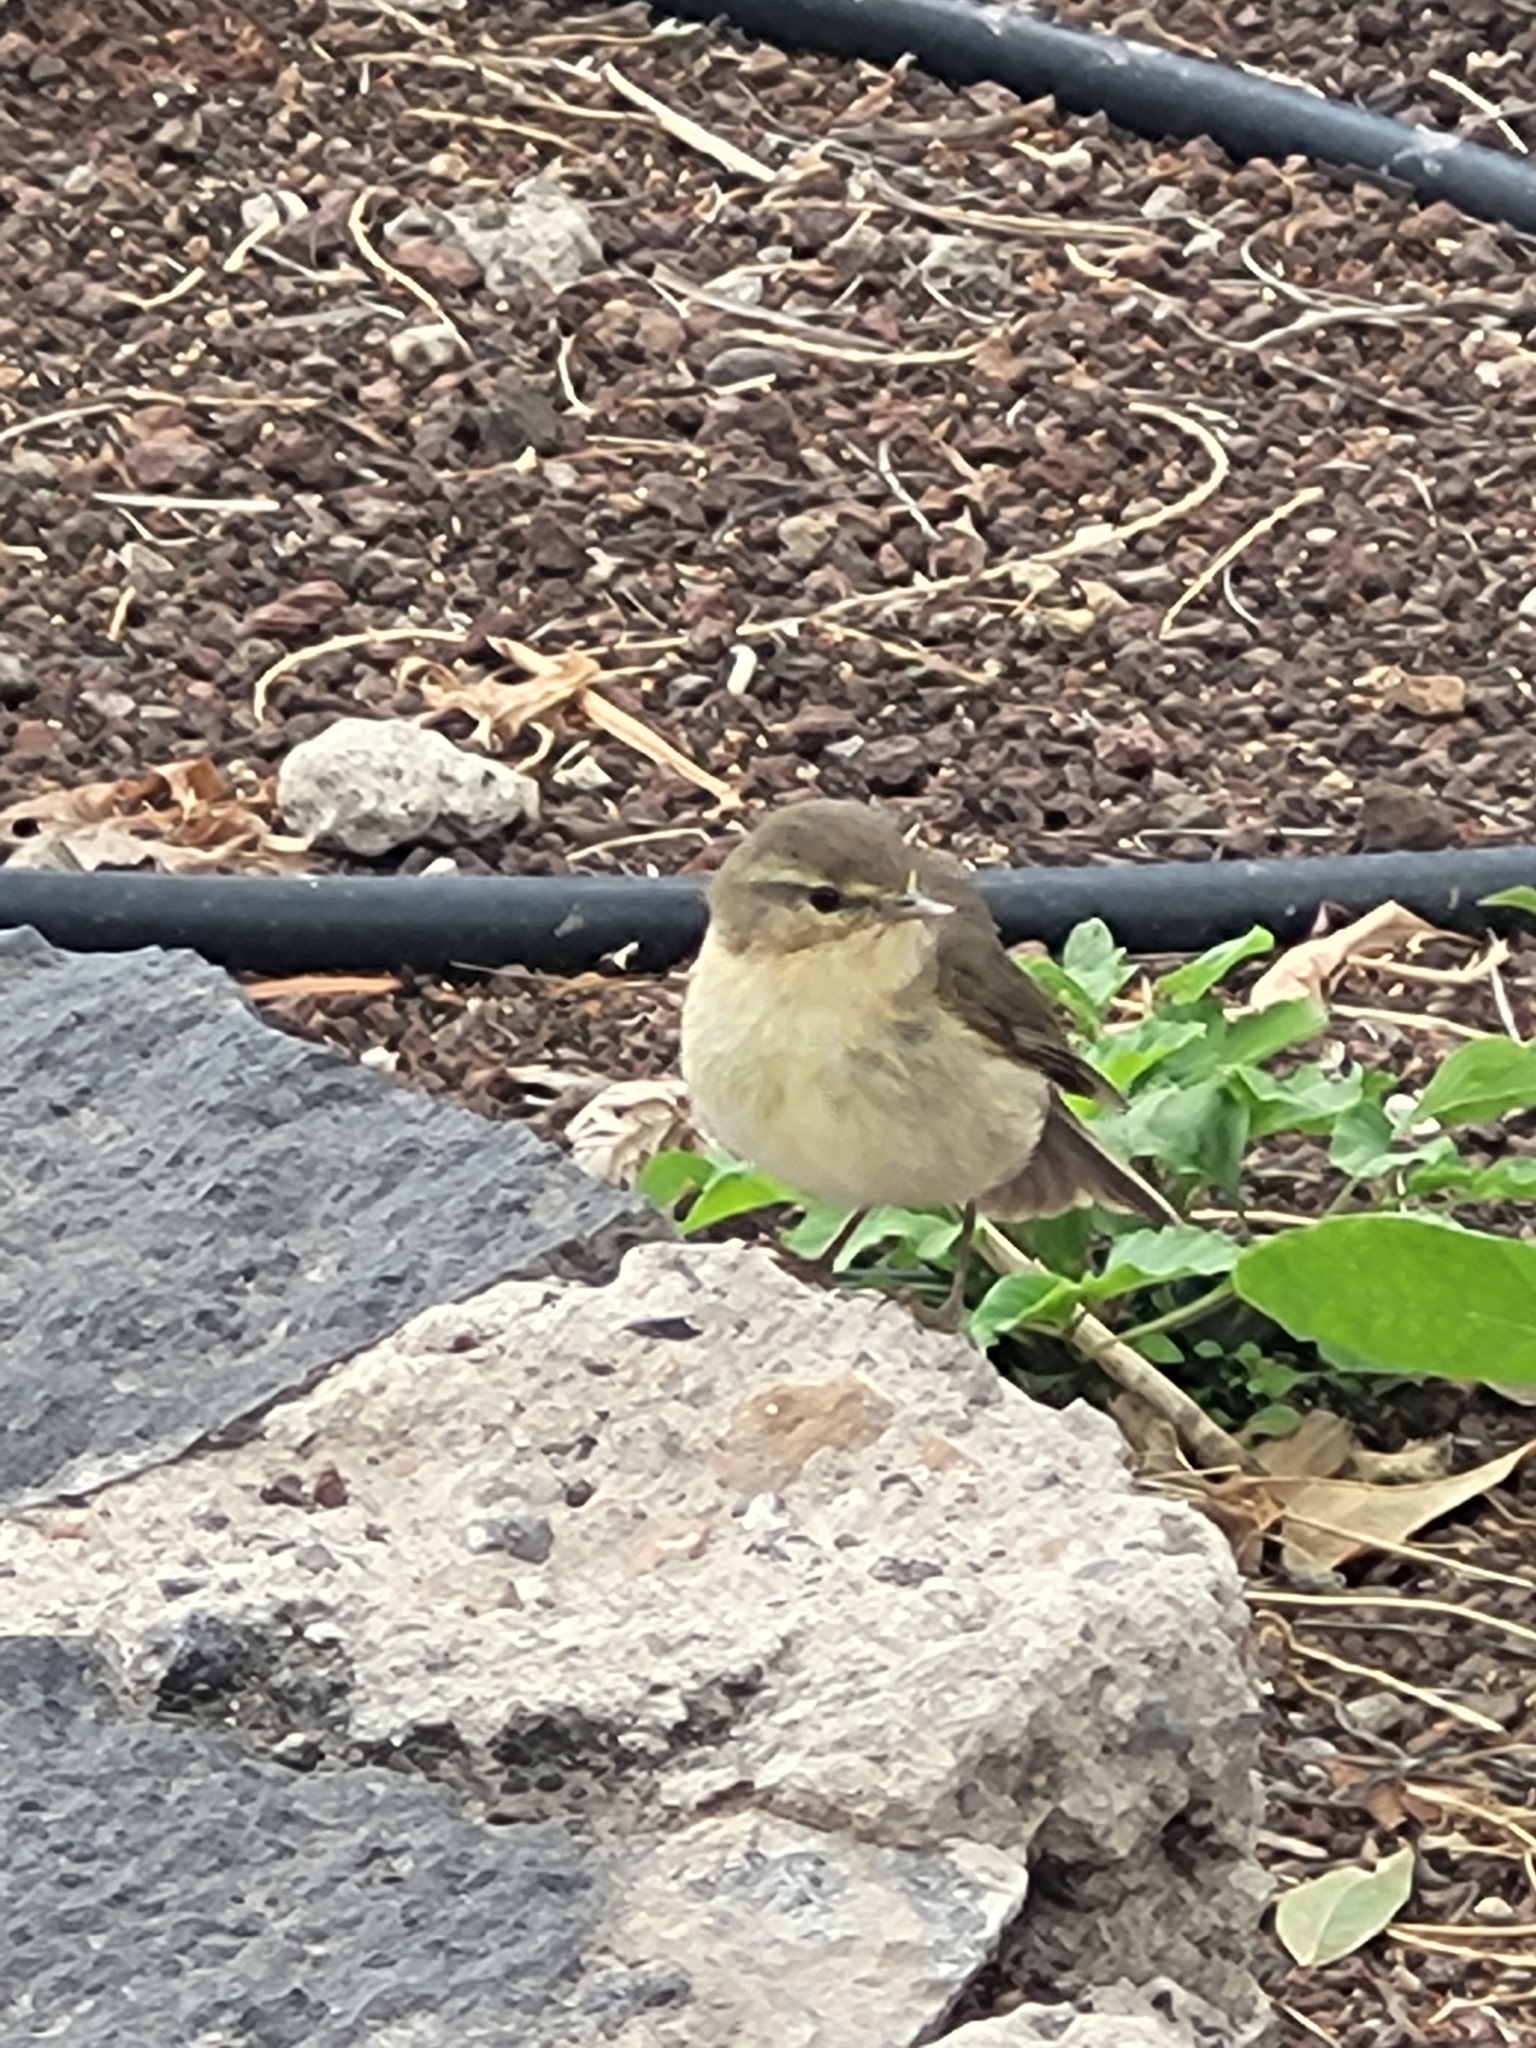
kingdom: Animalia
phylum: Chordata
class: Aves
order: Passeriformes
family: Phylloscopidae
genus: Phylloscopus
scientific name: Phylloscopus canariensis
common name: Canary islands chiffchaff
